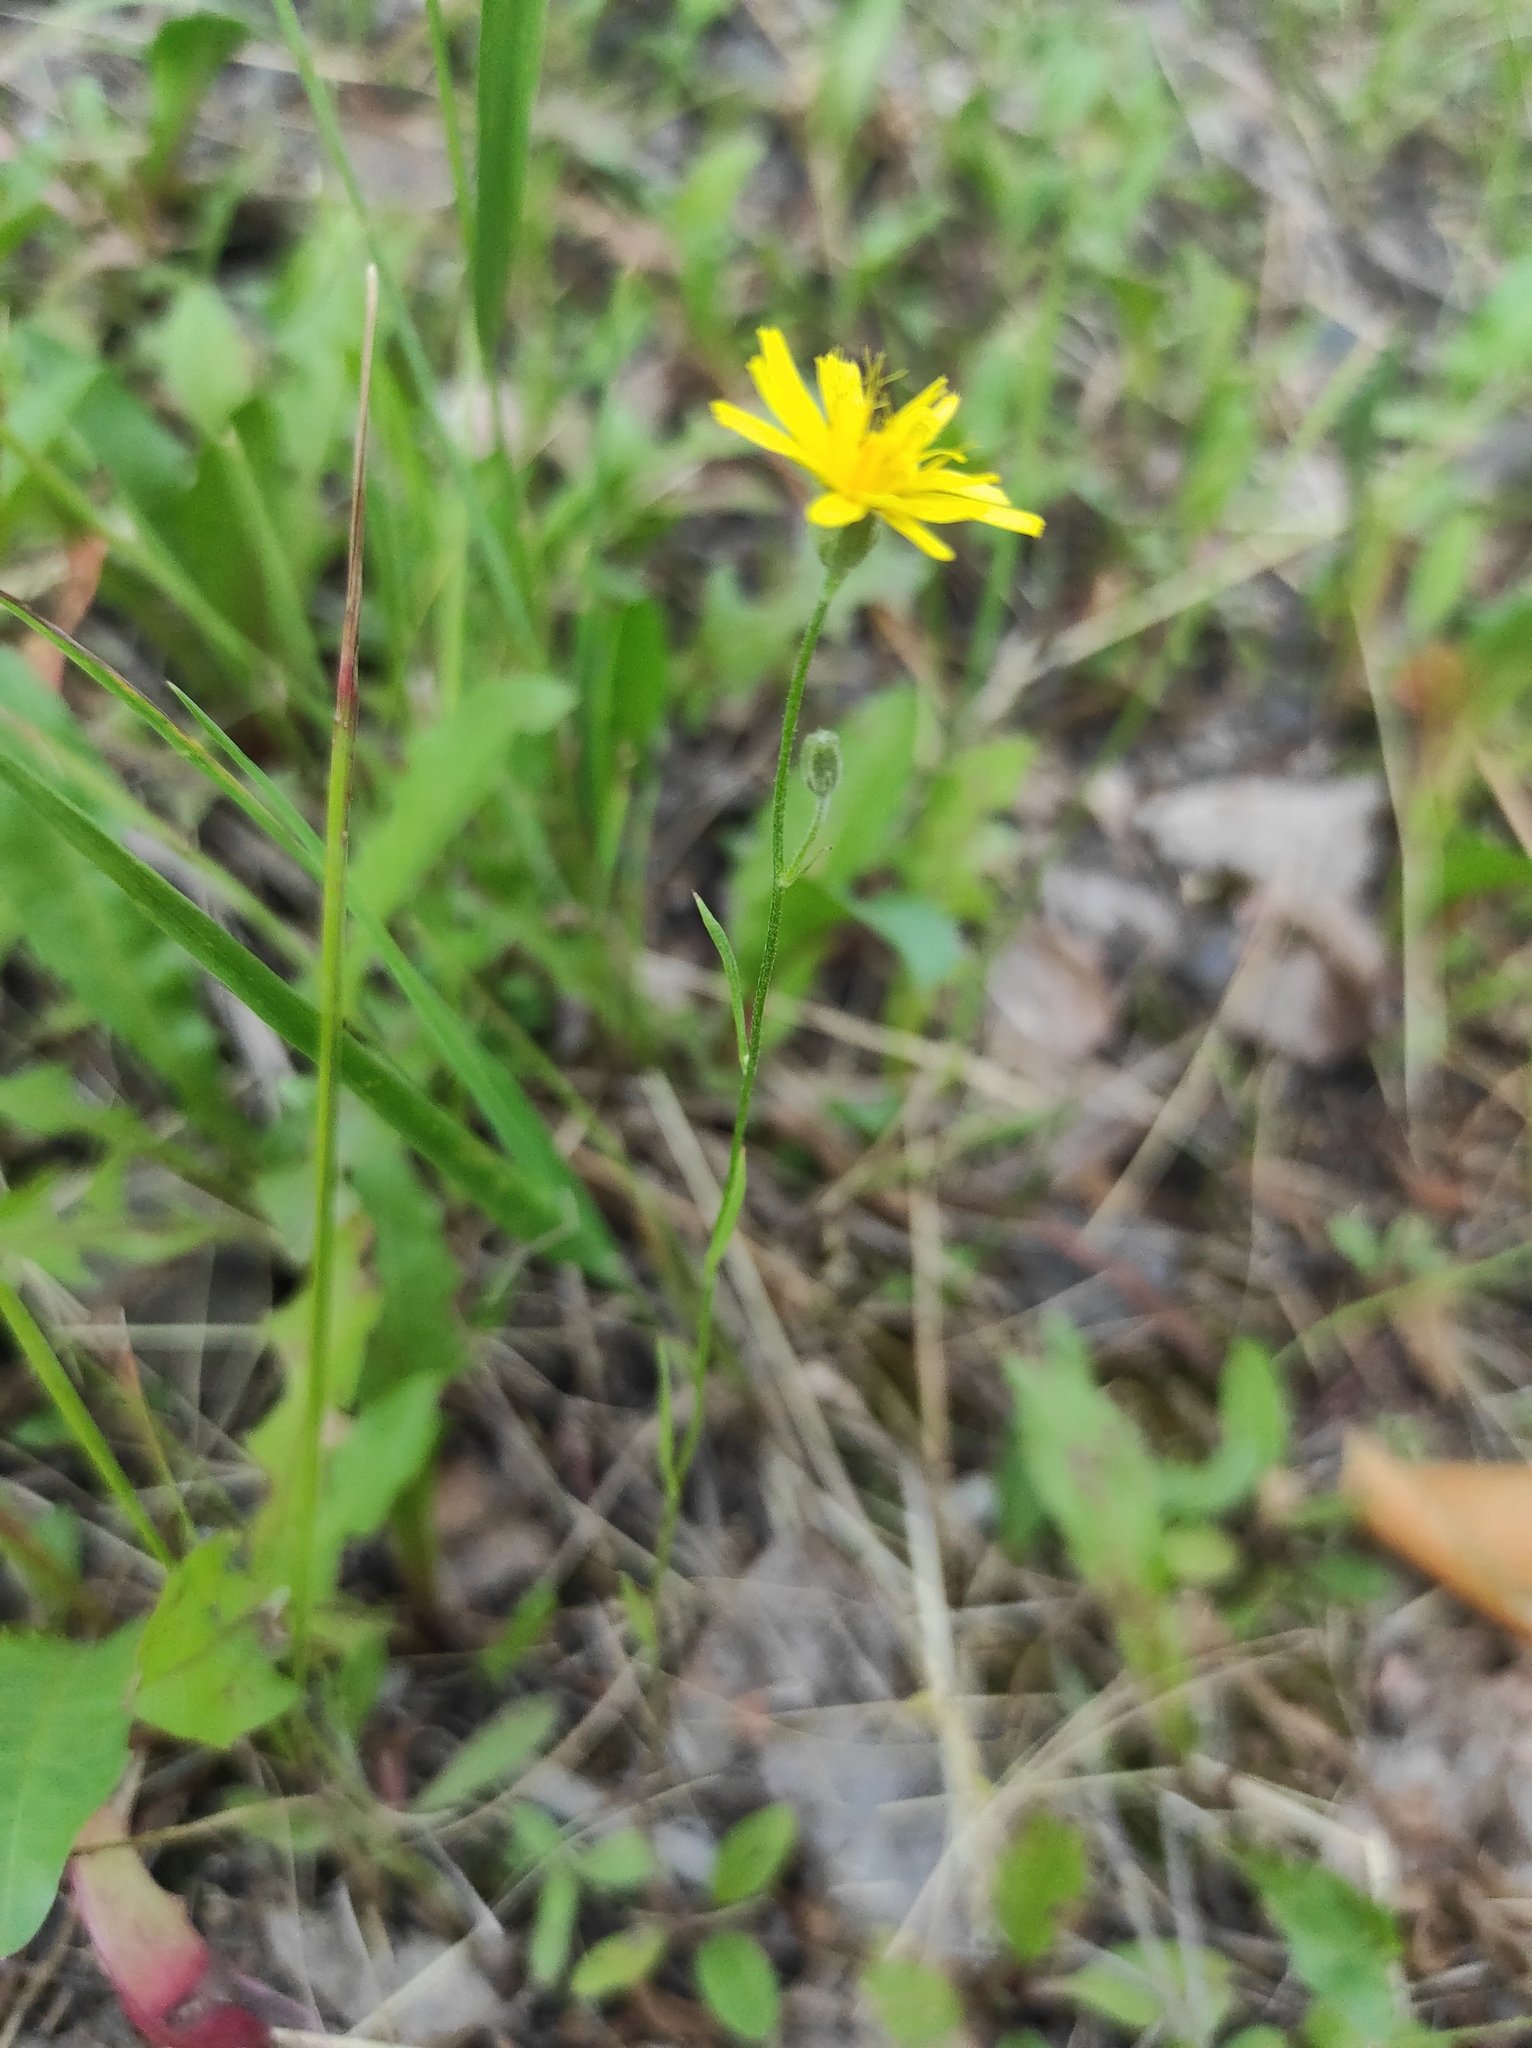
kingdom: Plantae
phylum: Tracheophyta
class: Magnoliopsida
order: Asterales
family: Asteraceae
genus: Crepis
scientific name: Crepis tectorum
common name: Narrow-leaved hawk's-beard
